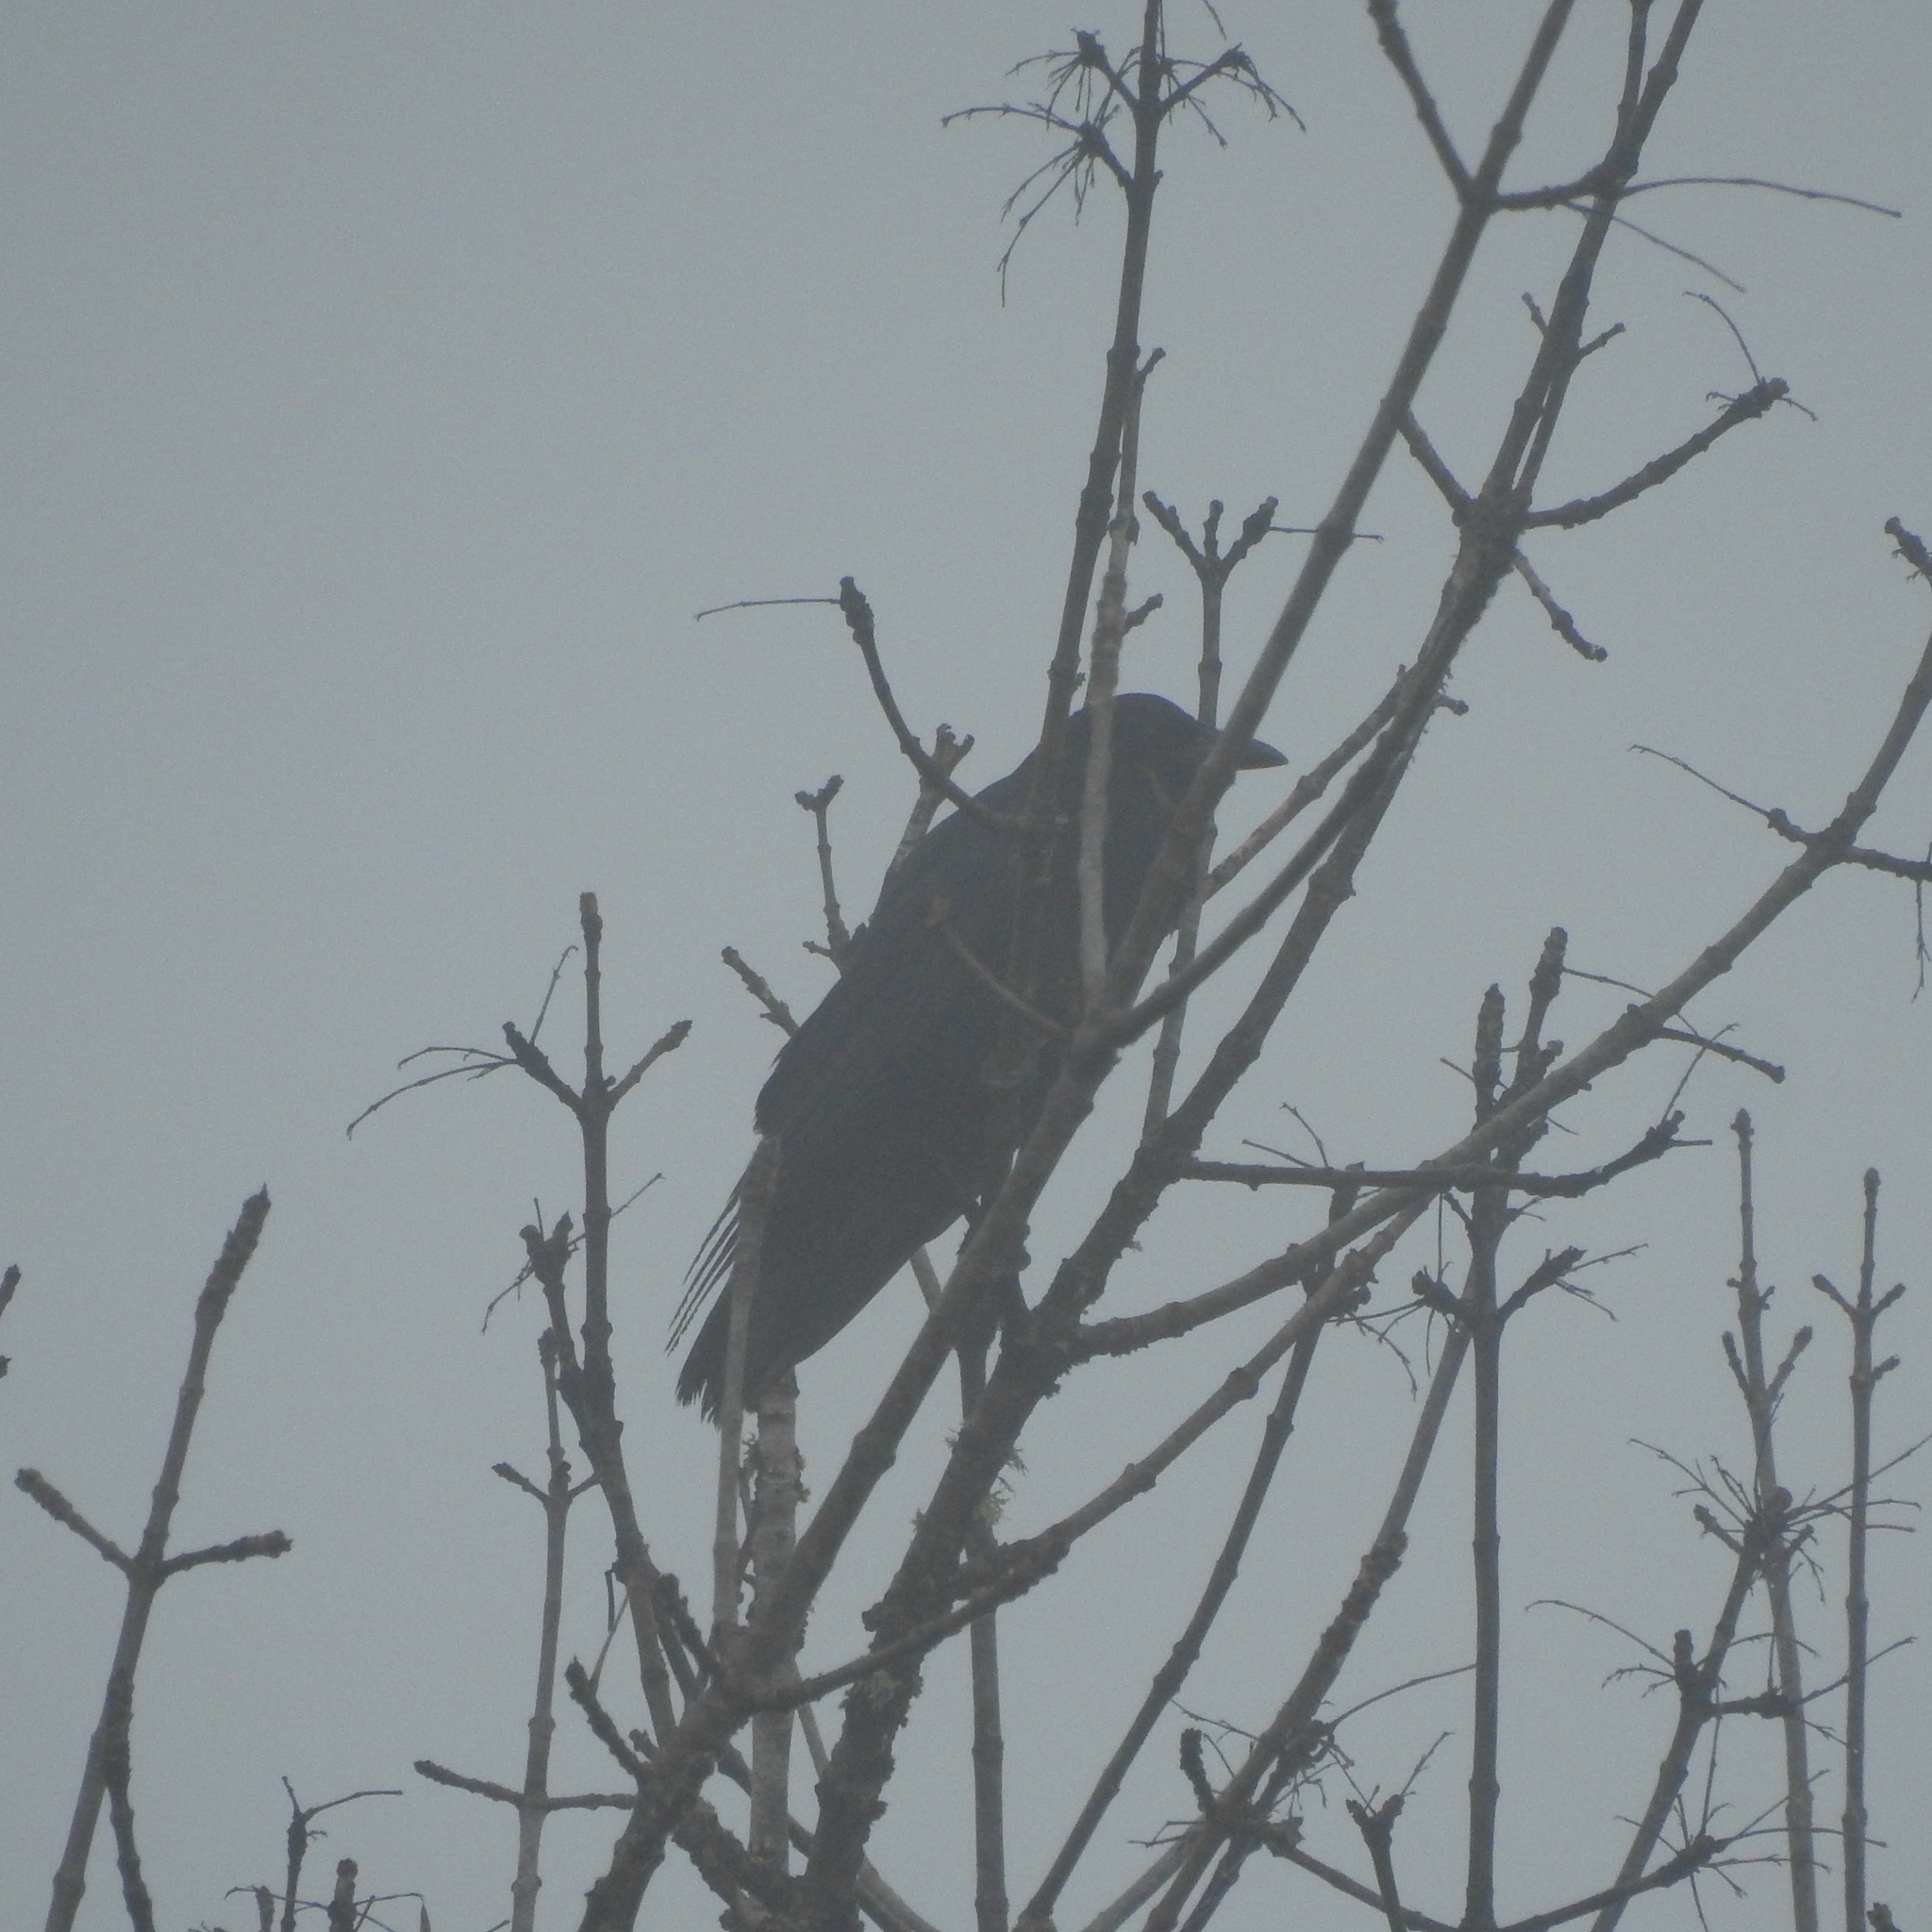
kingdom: Animalia
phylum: Chordata
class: Aves
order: Passeriformes
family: Corvidae
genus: Corvus
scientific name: Corvus corax
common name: Common raven
